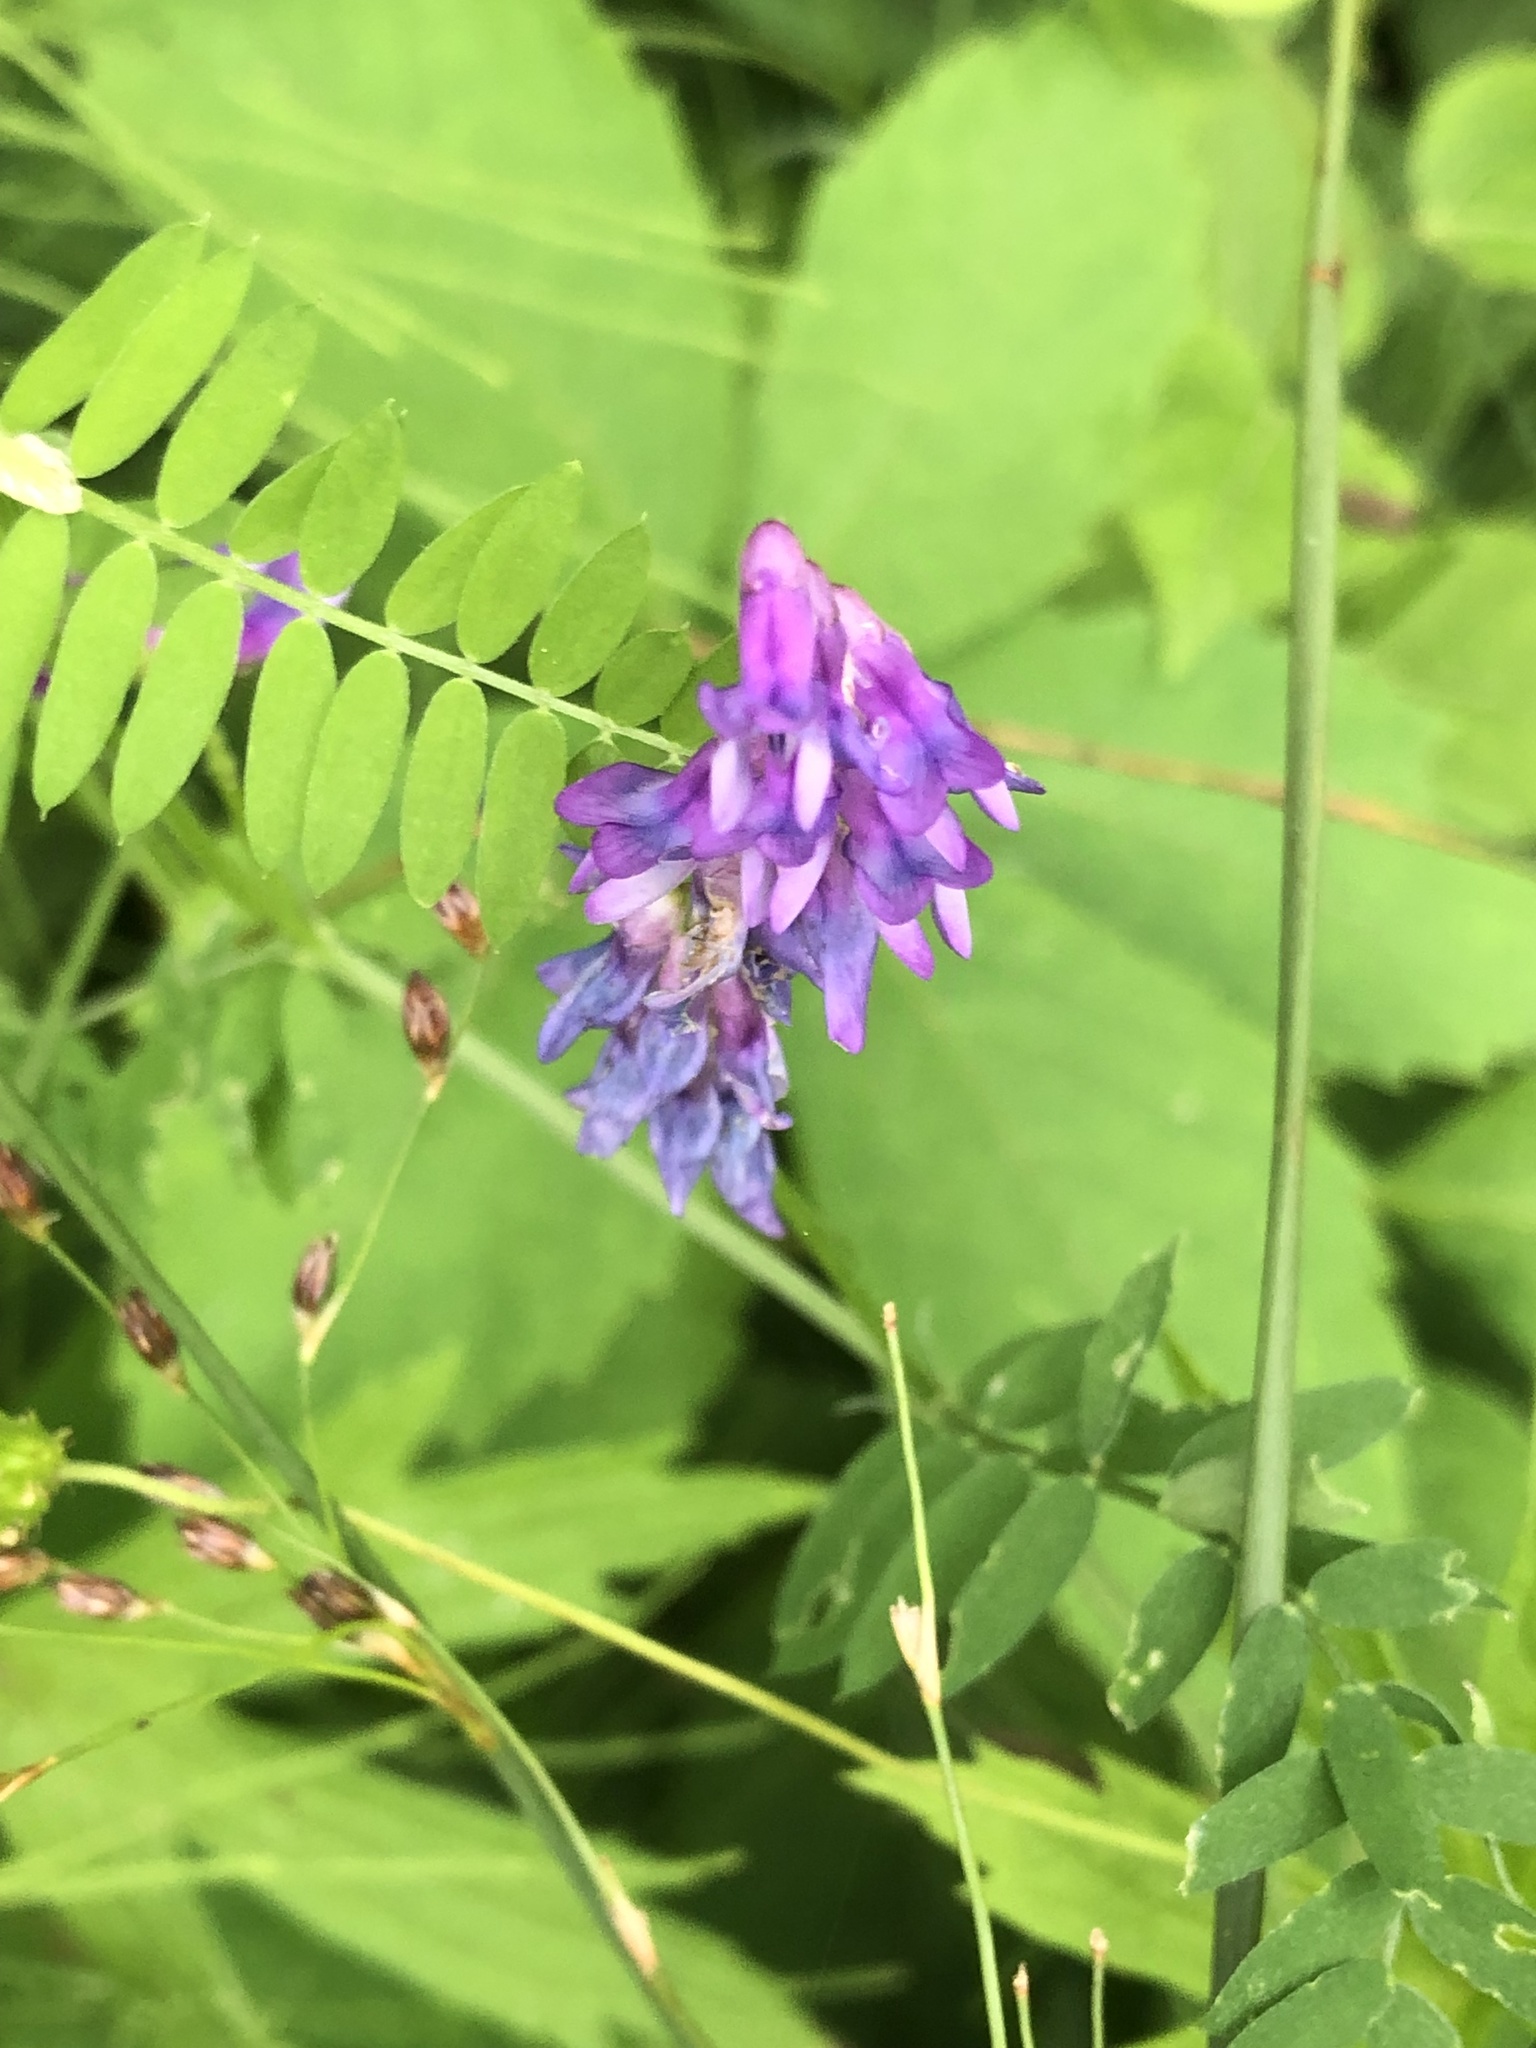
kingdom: Plantae
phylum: Tracheophyta
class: Magnoliopsida
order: Fabales
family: Fabaceae
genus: Vicia
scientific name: Vicia cracca
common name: Bird vetch
